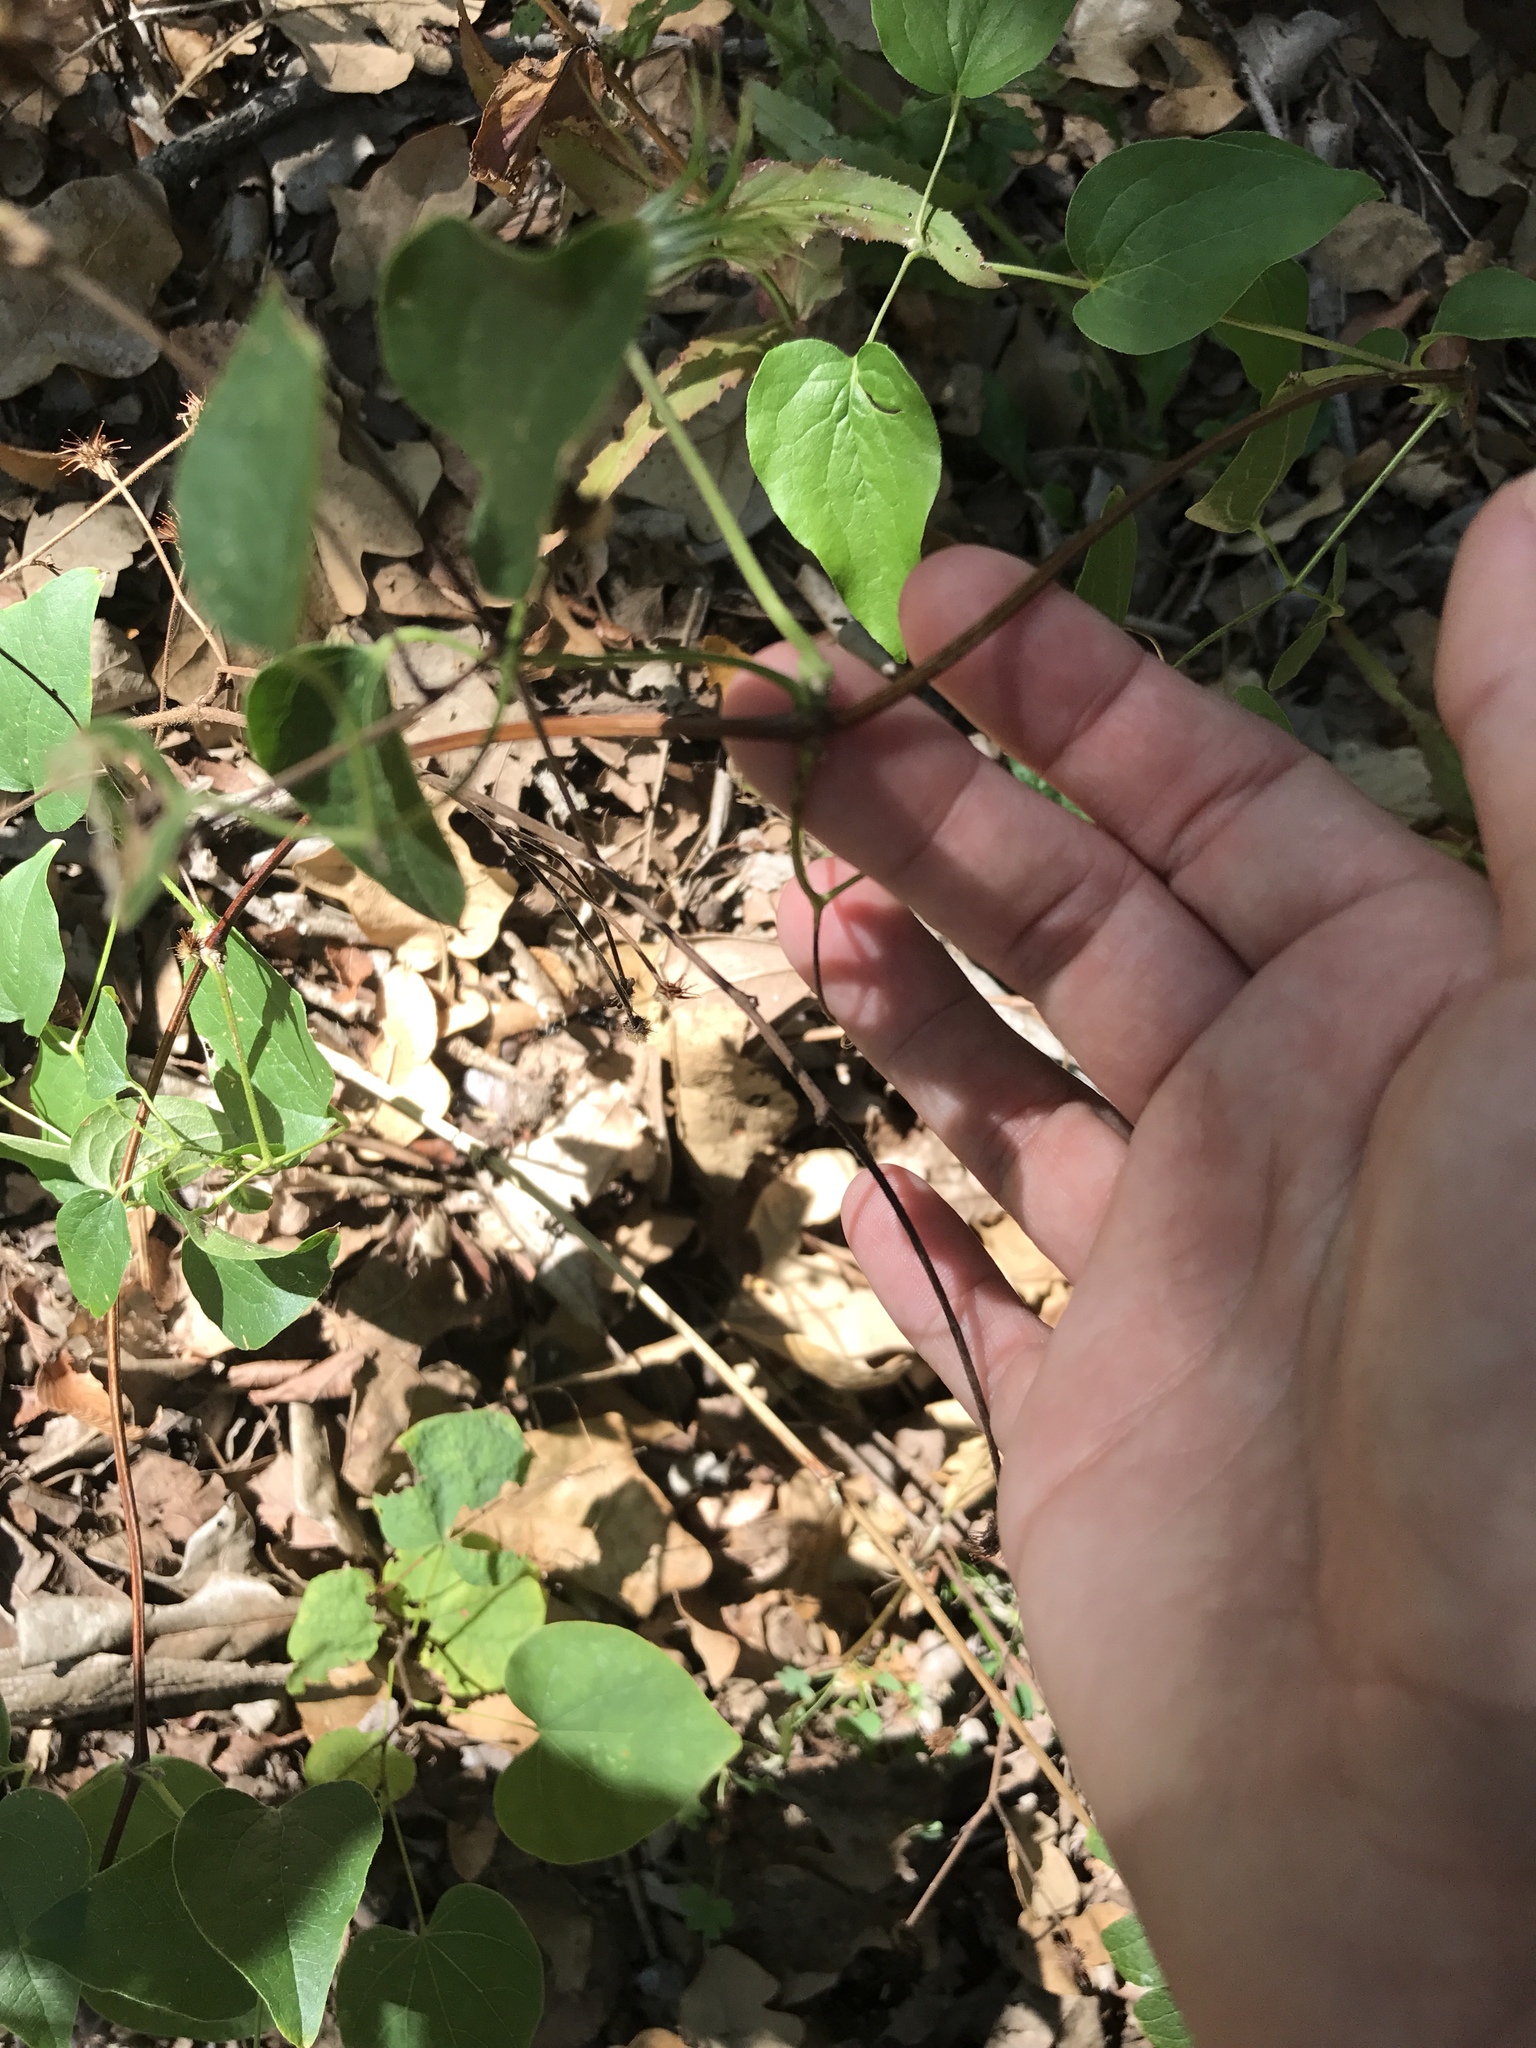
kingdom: Plantae
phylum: Tracheophyta
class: Magnoliopsida
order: Ranunculales
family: Ranunculaceae
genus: Clematis
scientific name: Clematis pitcheri
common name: Bellflower clematis
